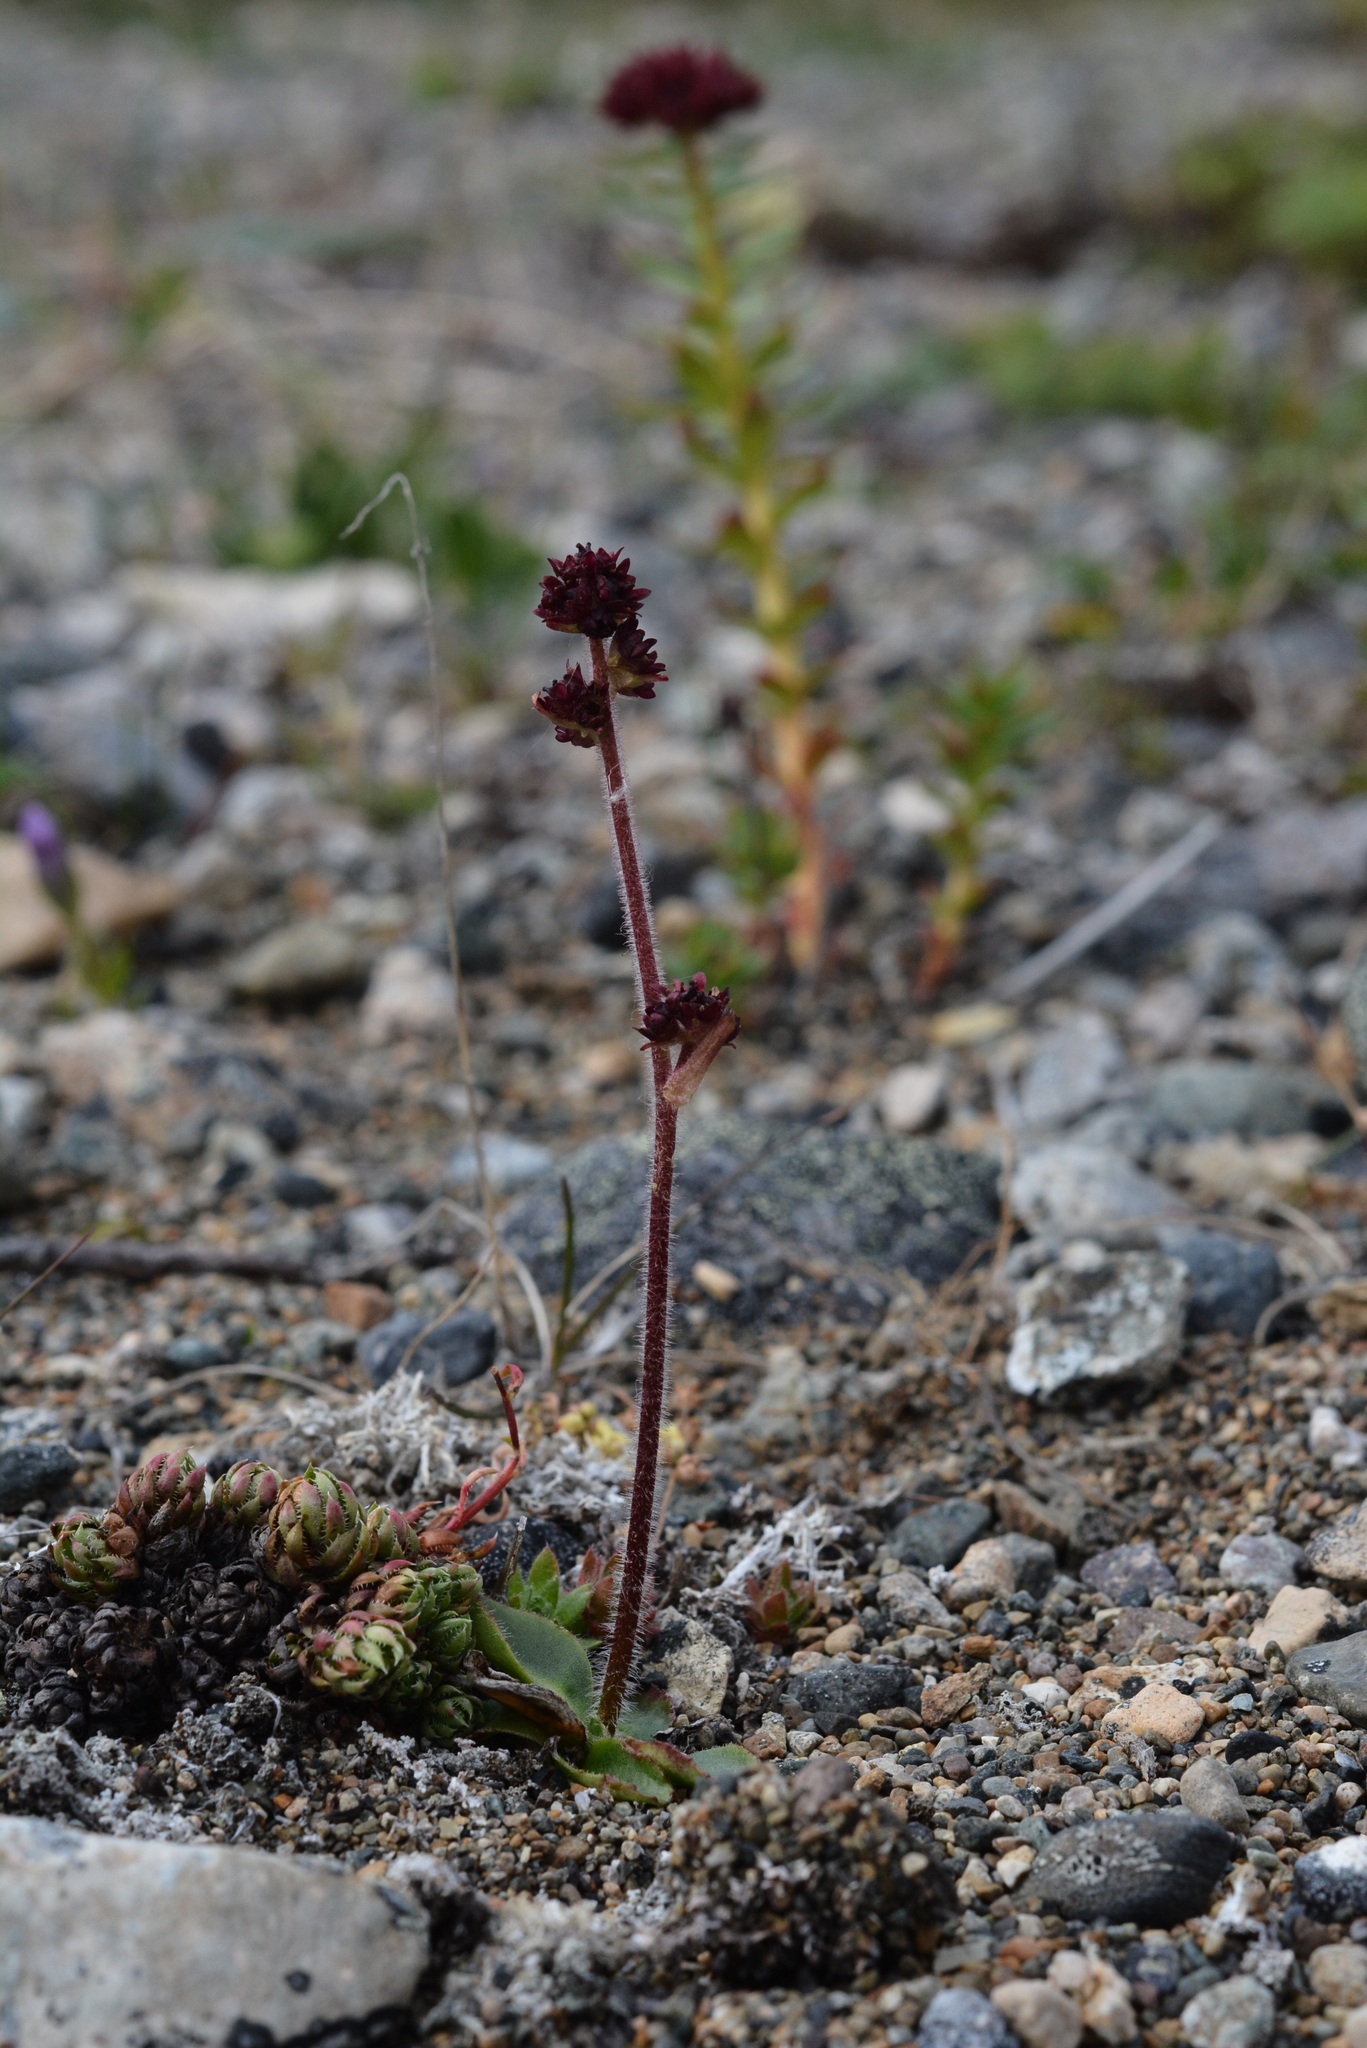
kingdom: Plantae
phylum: Tracheophyta
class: Magnoliopsida
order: Saxifragales
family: Saxifragaceae
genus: Micranthes
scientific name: Micranthes nivalis
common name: Alpine saxifrage
